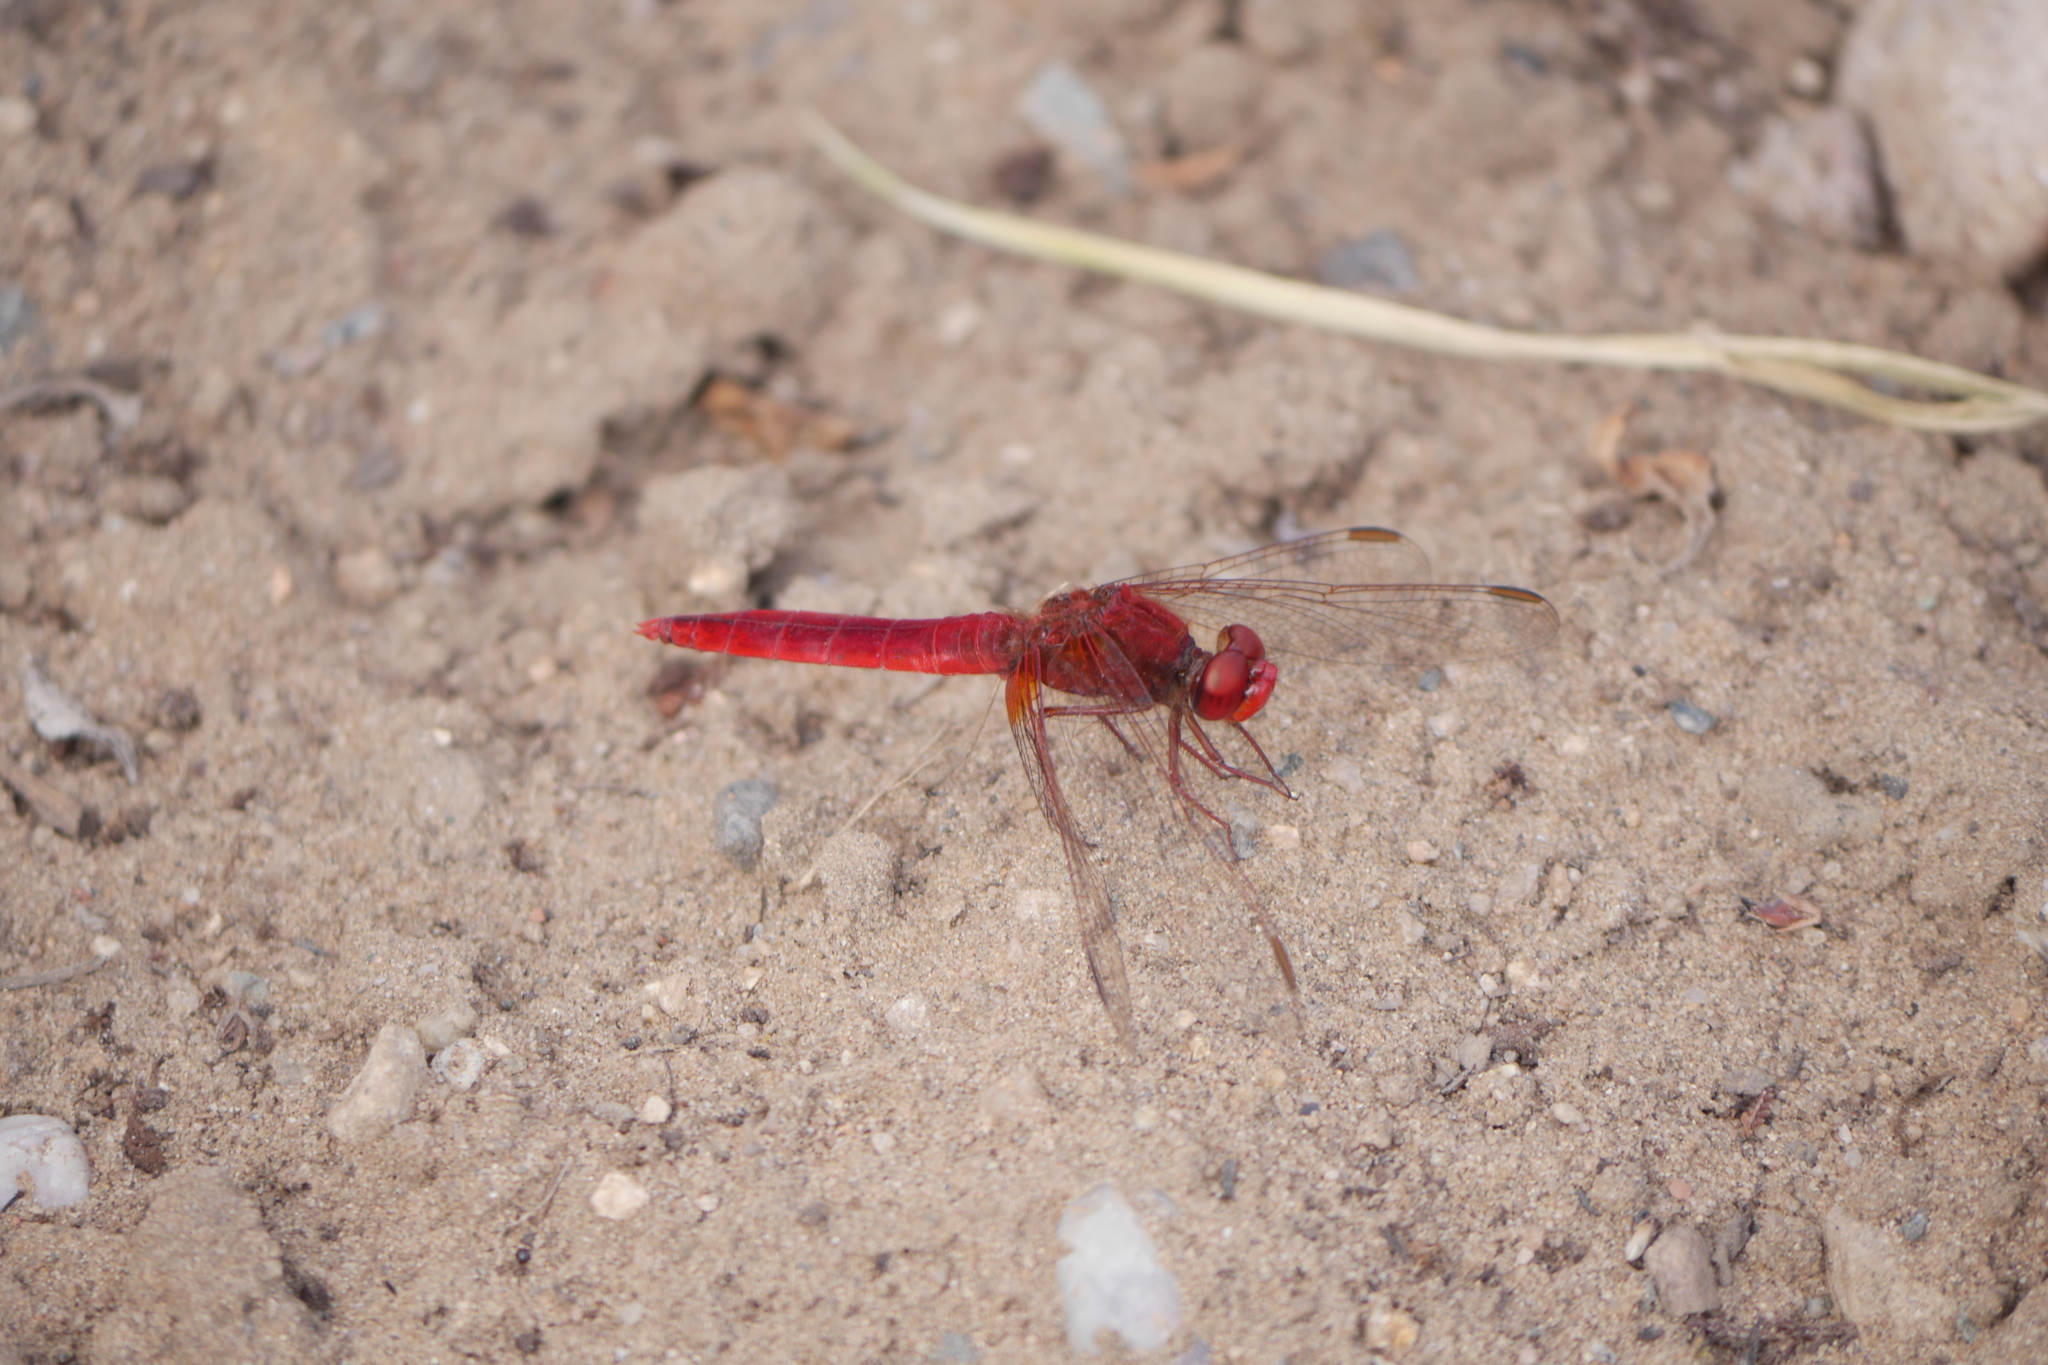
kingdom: Animalia
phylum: Arthropoda
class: Insecta
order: Odonata
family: Libellulidae
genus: Crocothemis
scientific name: Crocothemis erythraea
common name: Scarlet dragonfly
